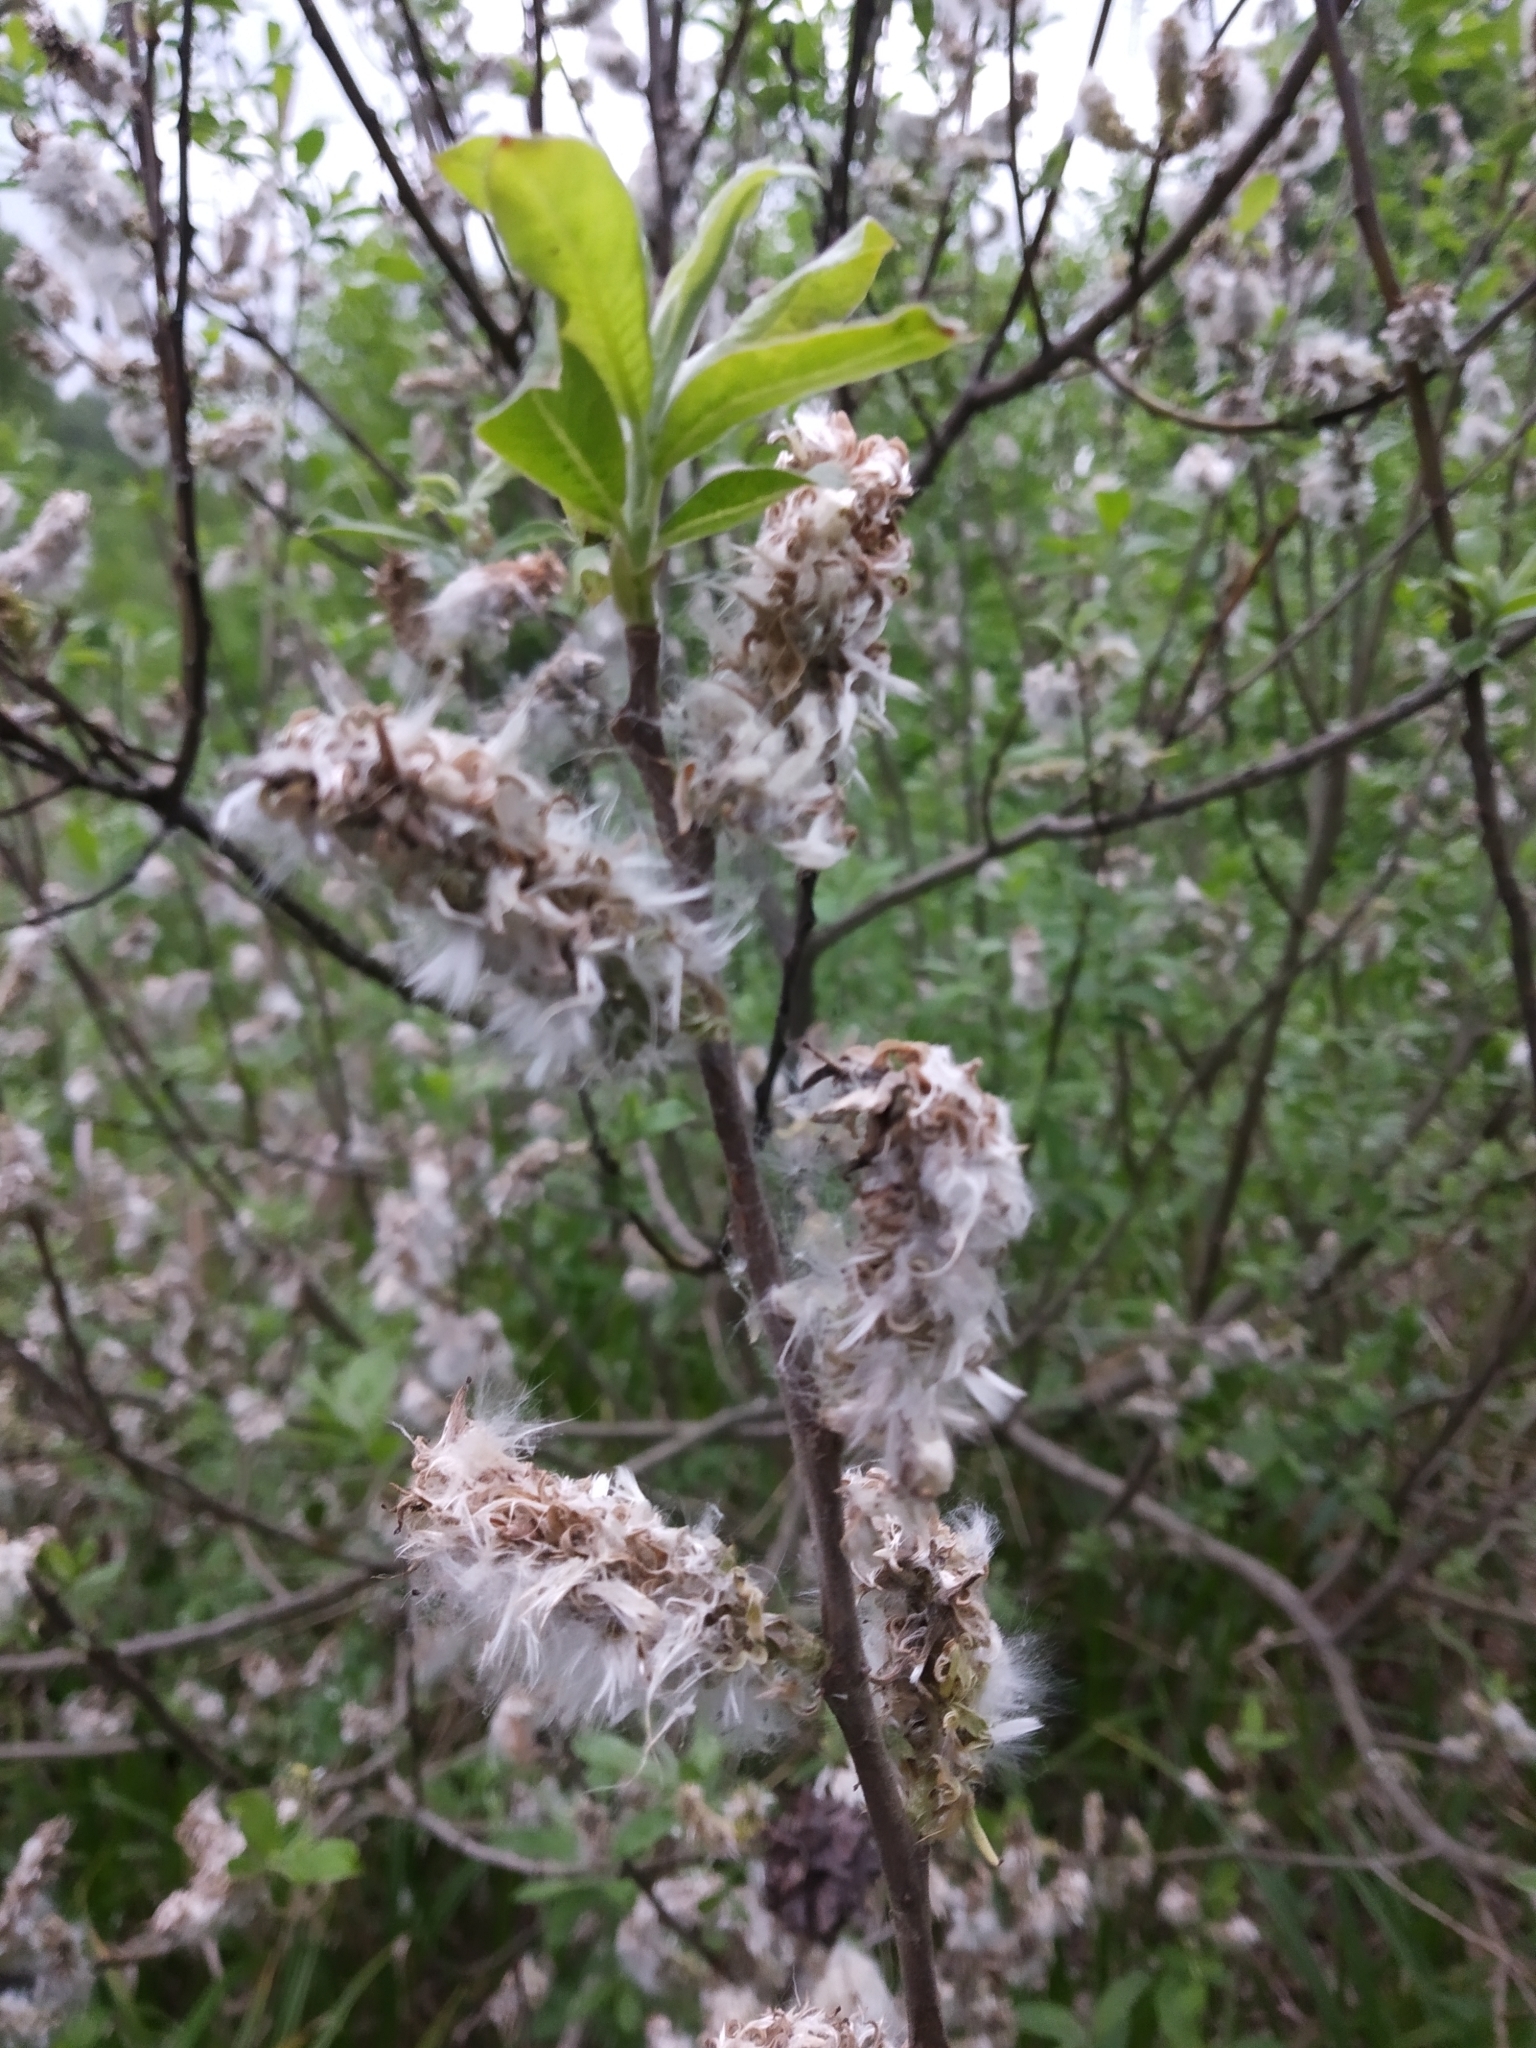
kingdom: Plantae
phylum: Tracheophyta
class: Magnoliopsida
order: Malpighiales
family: Salicaceae
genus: Salix
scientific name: Salix cinerea
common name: Common sallow
